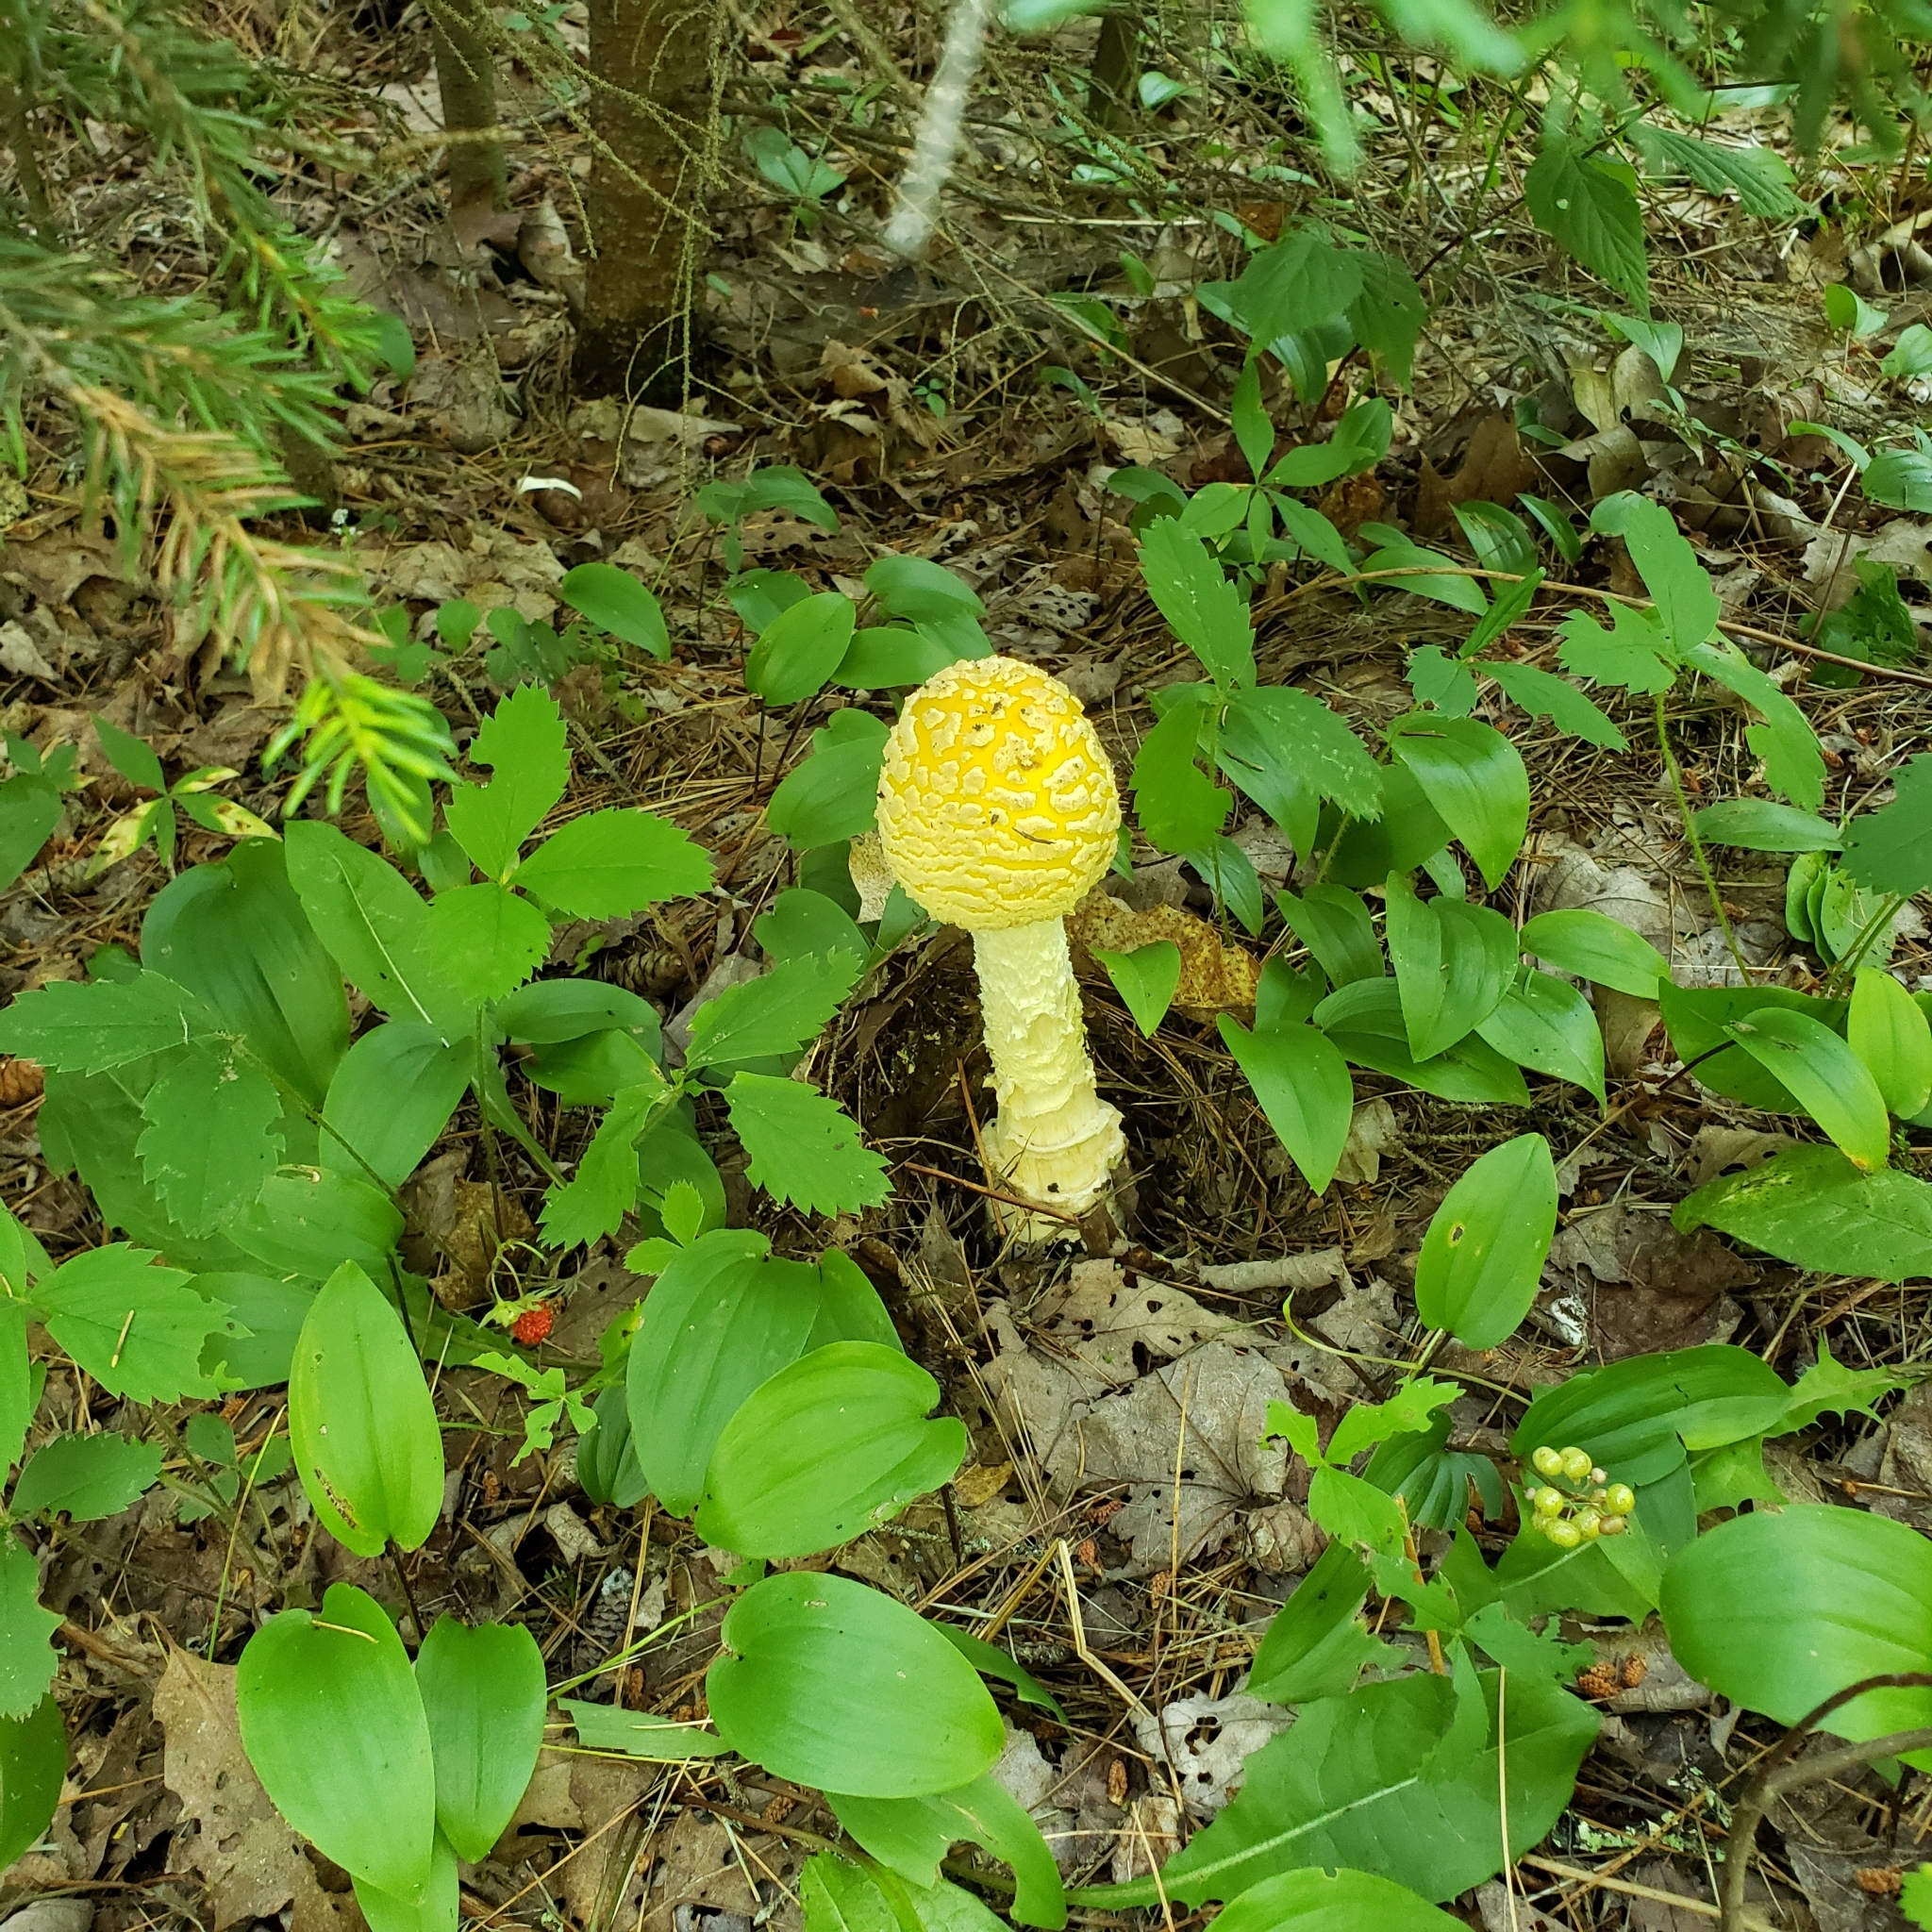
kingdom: Fungi
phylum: Basidiomycota
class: Agaricomycetes
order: Agaricales
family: Amanitaceae
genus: Amanita
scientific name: Amanita muscaria
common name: Fly agaric
